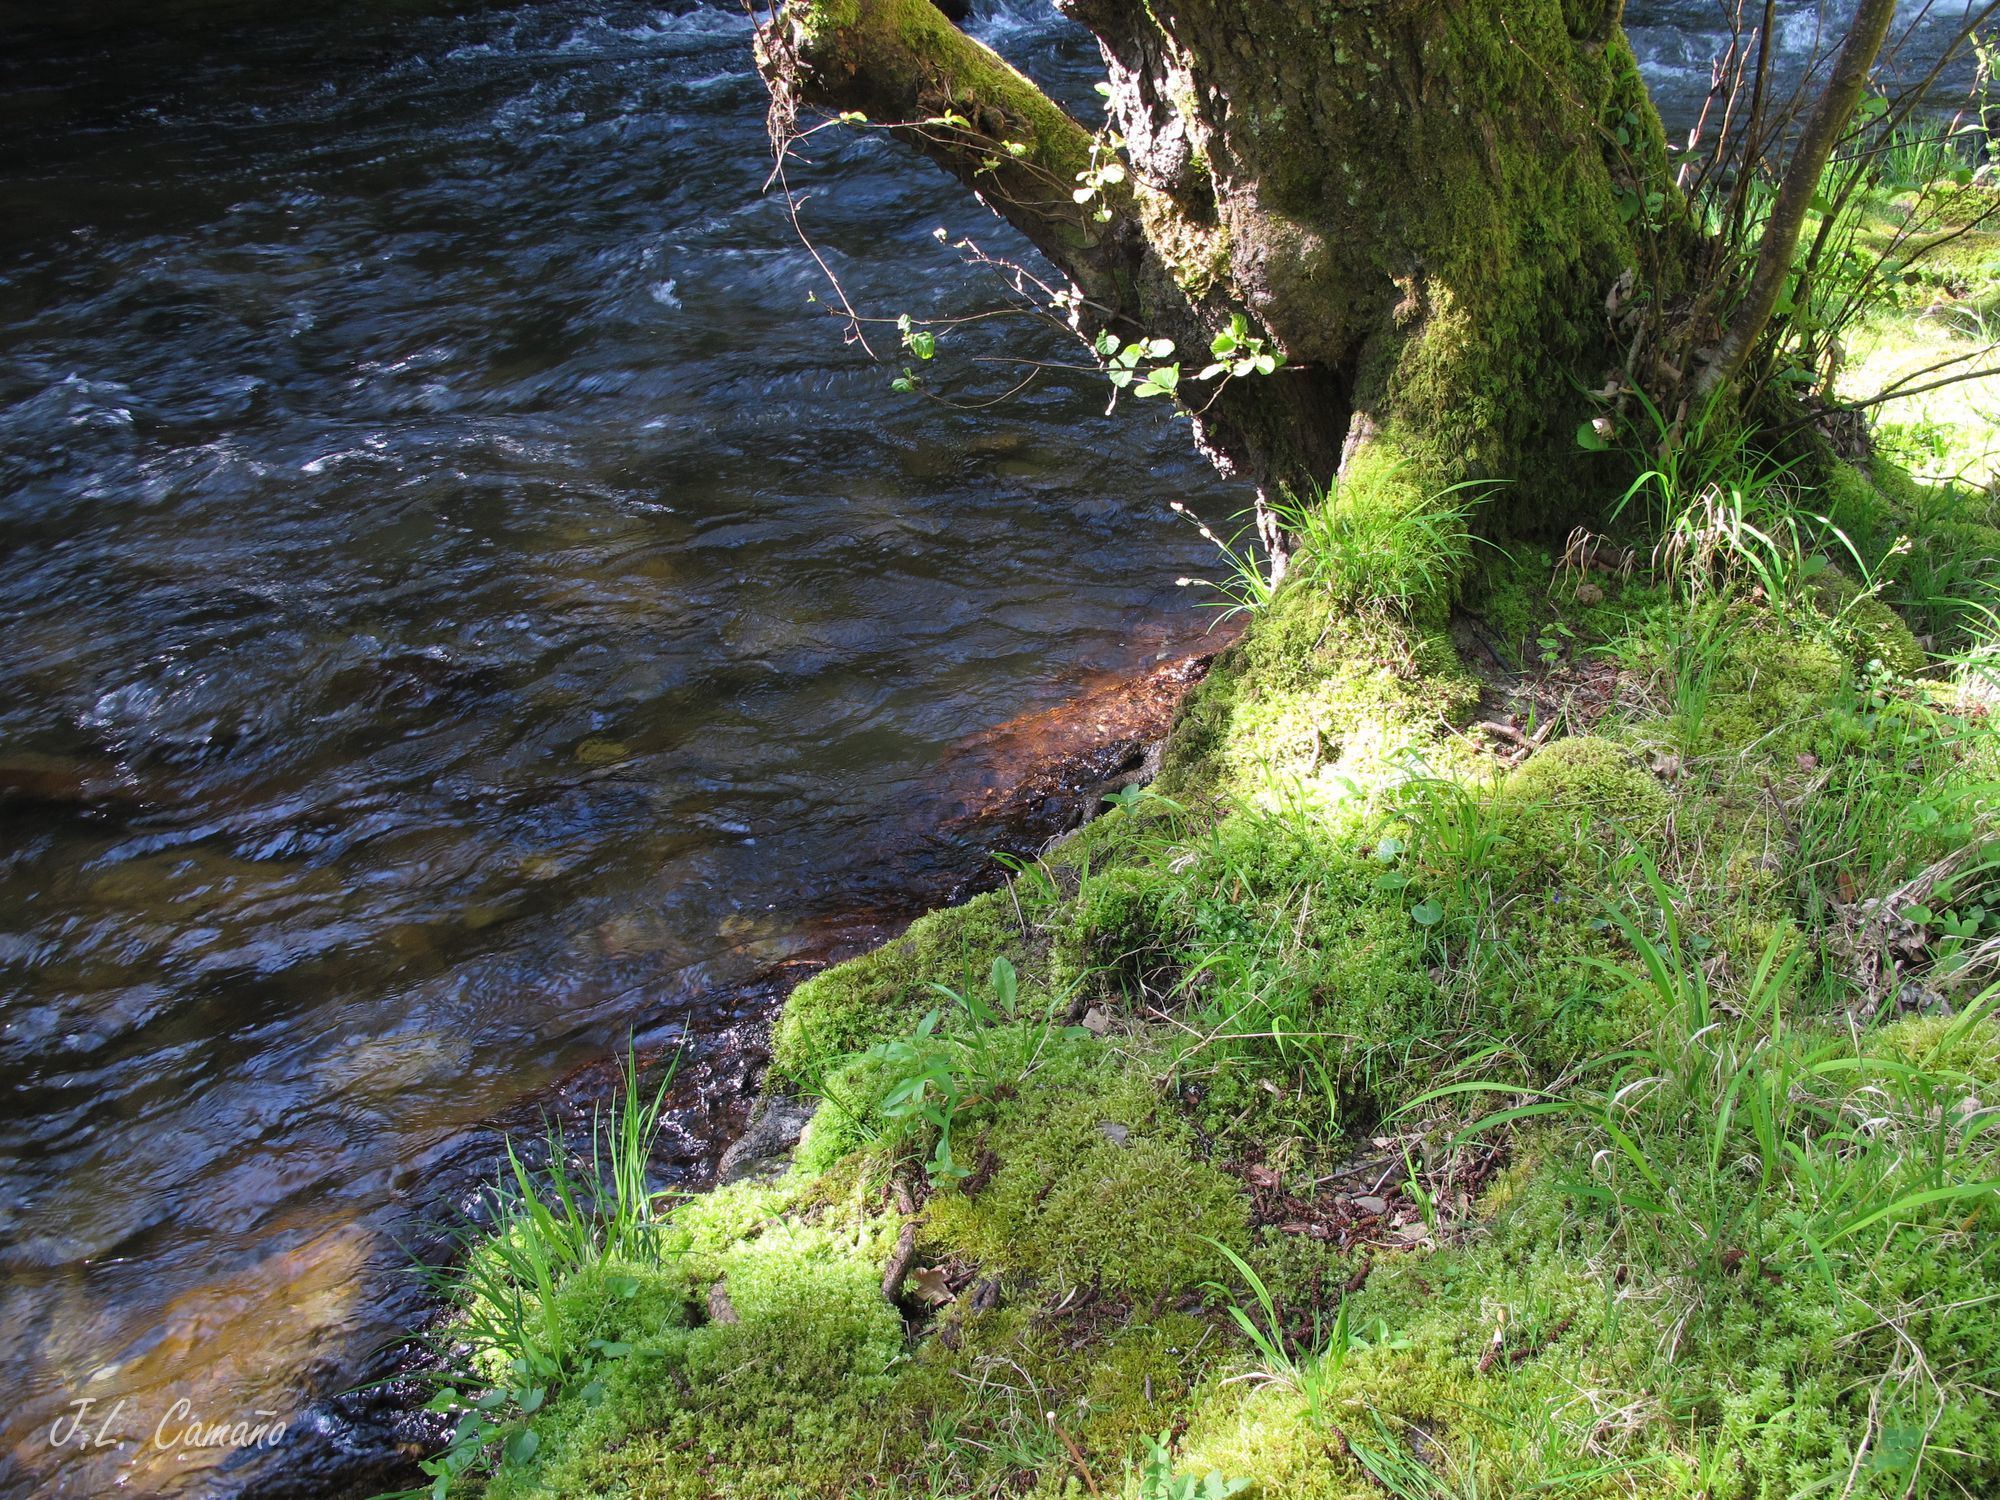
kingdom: Plantae
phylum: Bryophyta
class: Bryopsida
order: Bryales
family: Mniaceae
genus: Plagiomnium
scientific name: Plagiomnium undulatum
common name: Hart's-tongue thyme-moss
